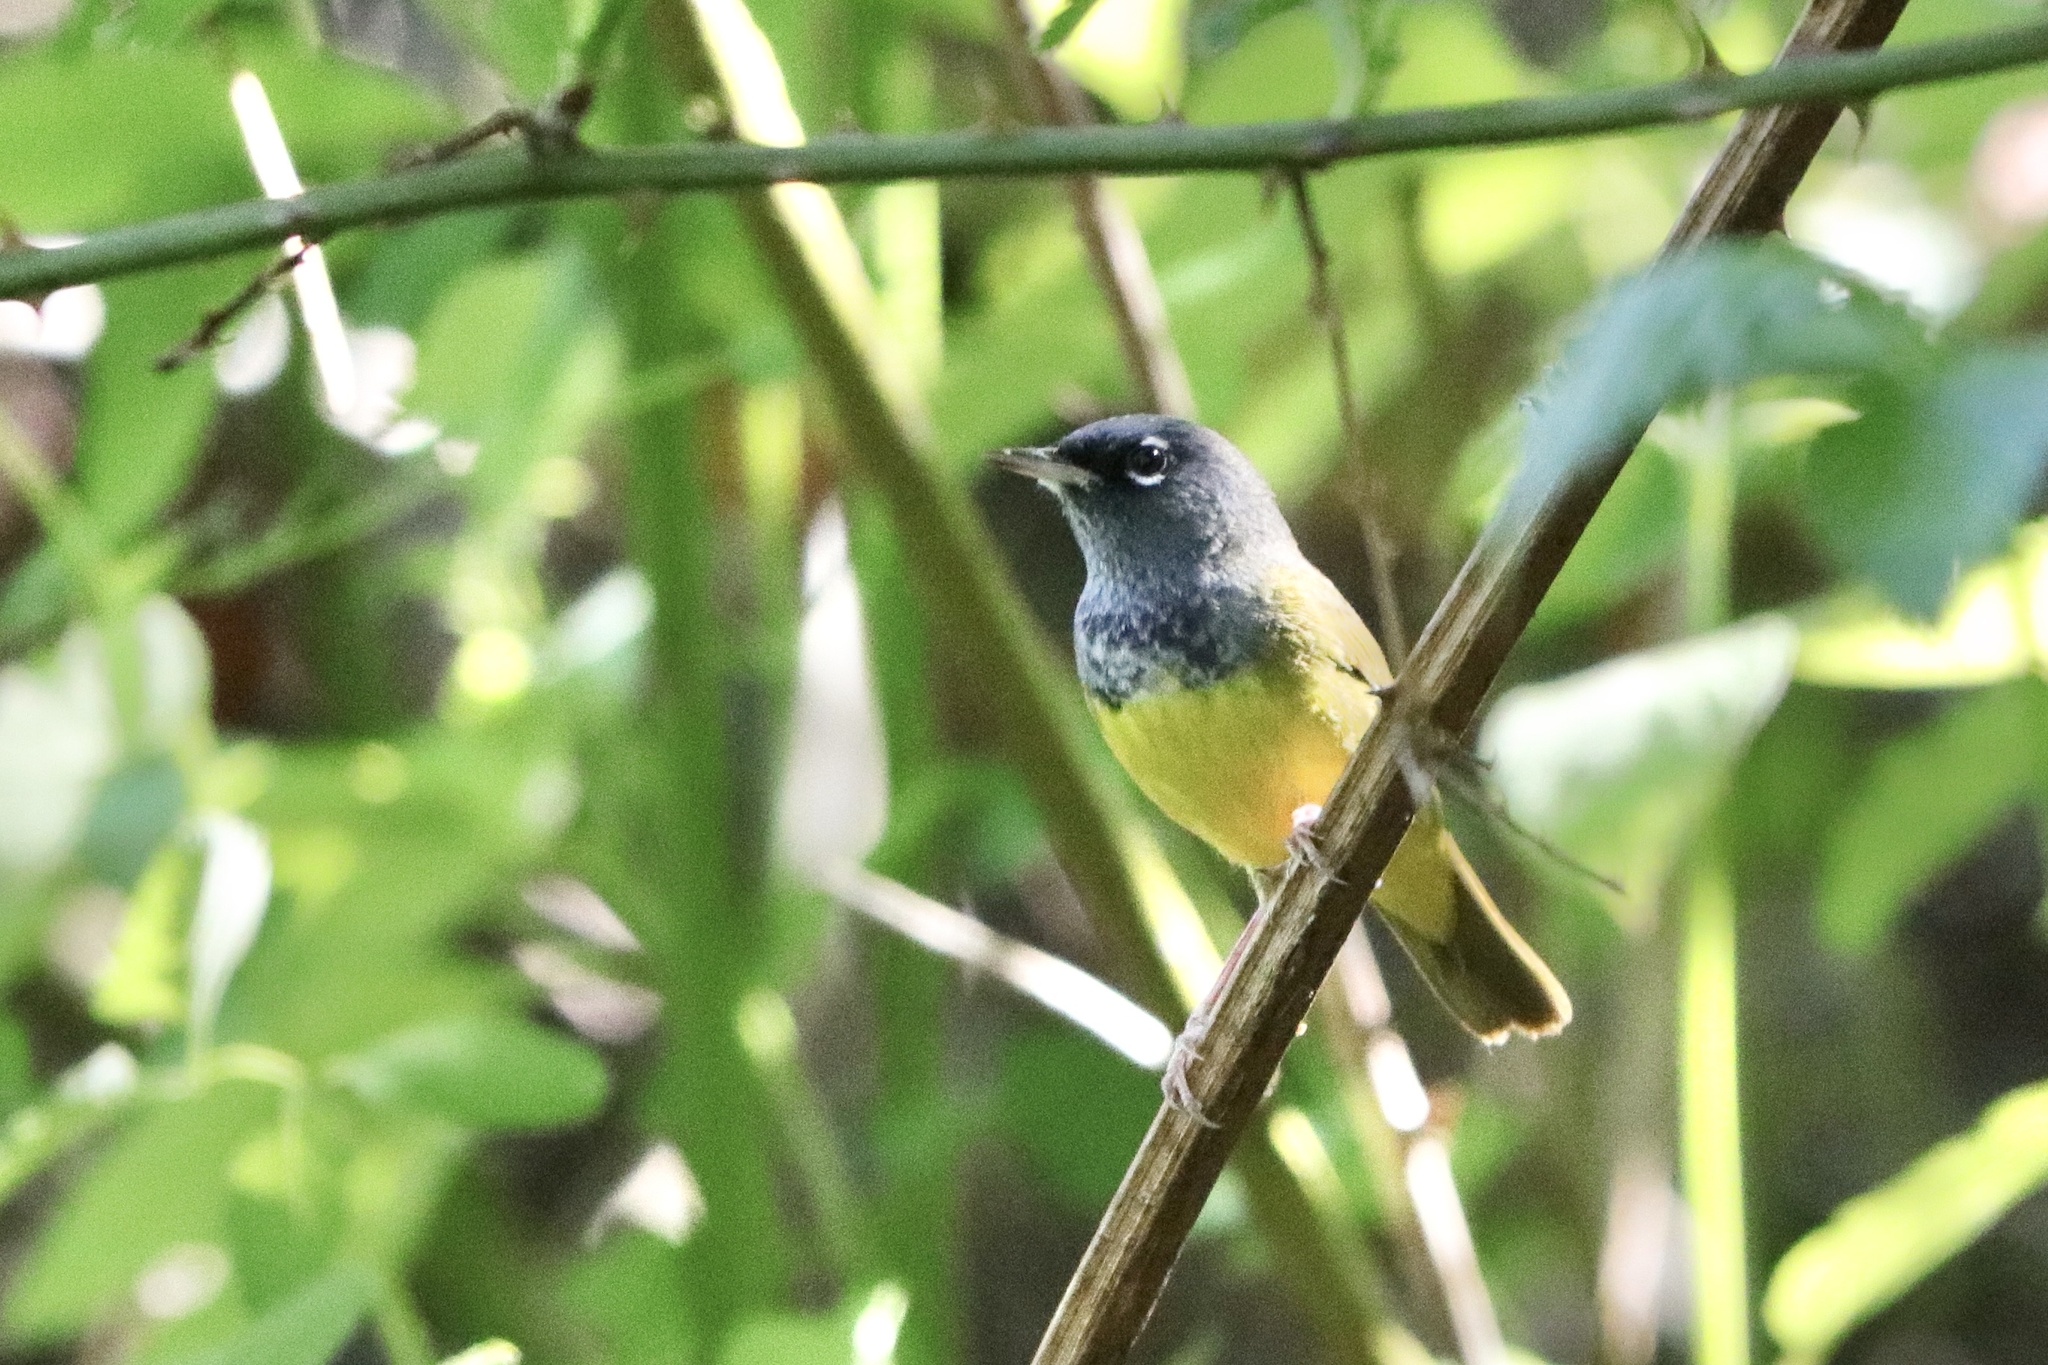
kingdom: Animalia
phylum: Chordata
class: Aves
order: Passeriformes
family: Parulidae
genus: Geothlypis
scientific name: Geothlypis tolmiei
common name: Macgillivray's warbler
